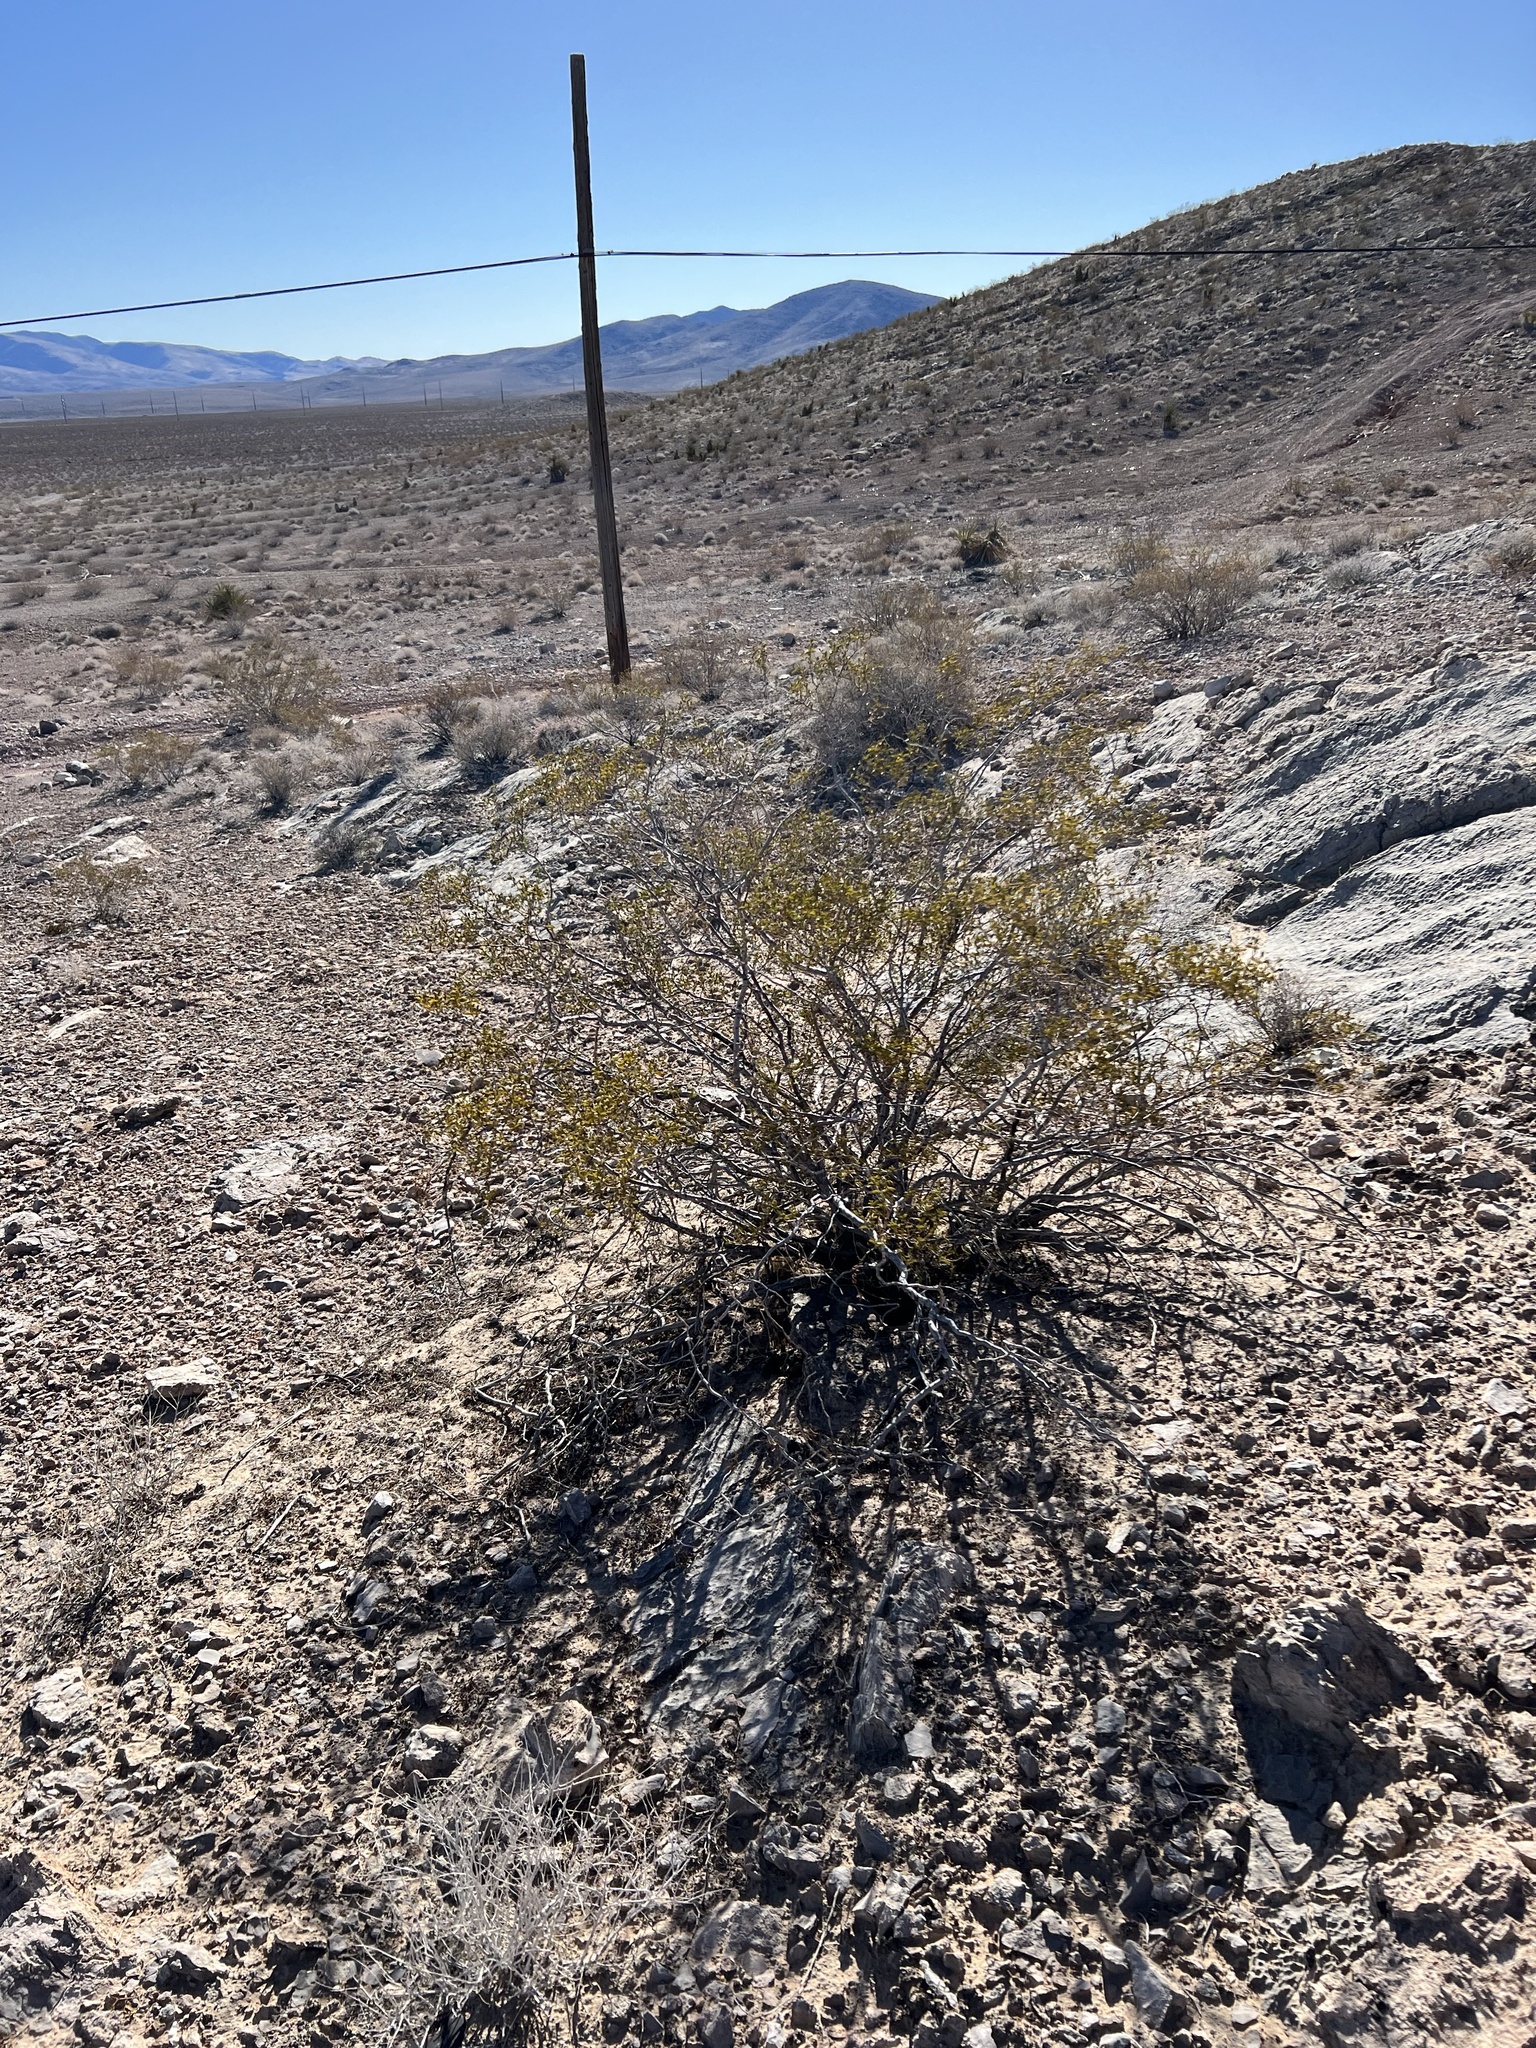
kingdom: Plantae
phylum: Tracheophyta
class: Magnoliopsida
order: Zygophyllales
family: Zygophyllaceae
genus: Larrea
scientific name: Larrea tridentata
